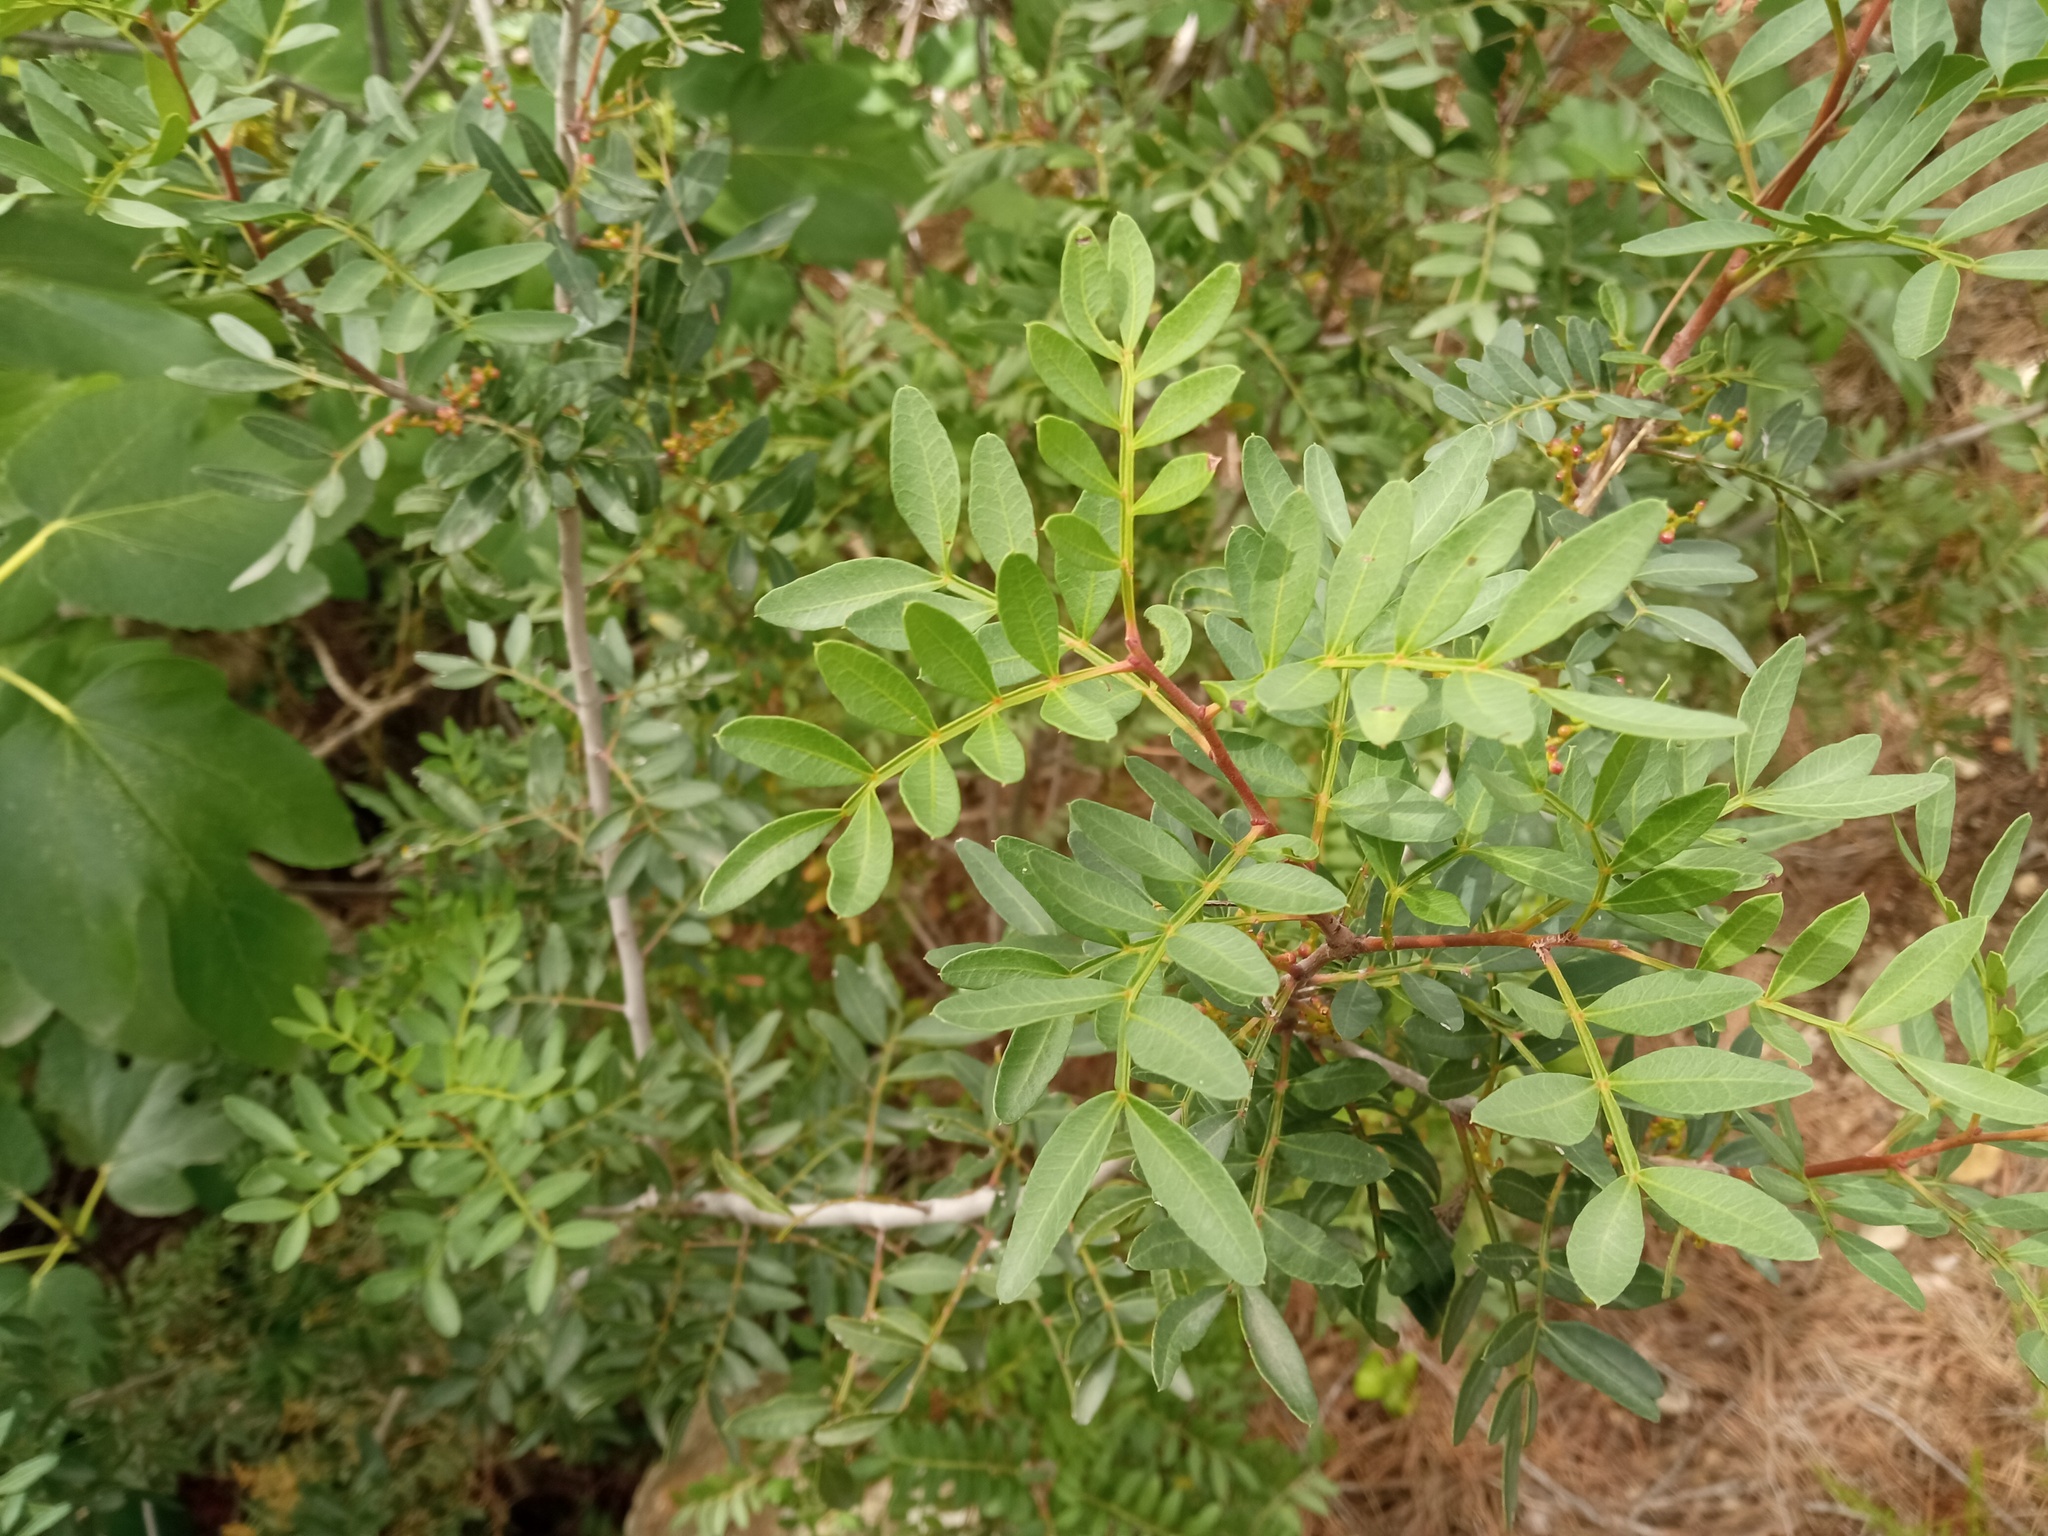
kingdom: Plantae
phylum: Tracheophyta
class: Magnoliopsida
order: Sapindales
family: Anacardiaceae
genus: Pistacia
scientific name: Pistacia lentiscus
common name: Lentisk
